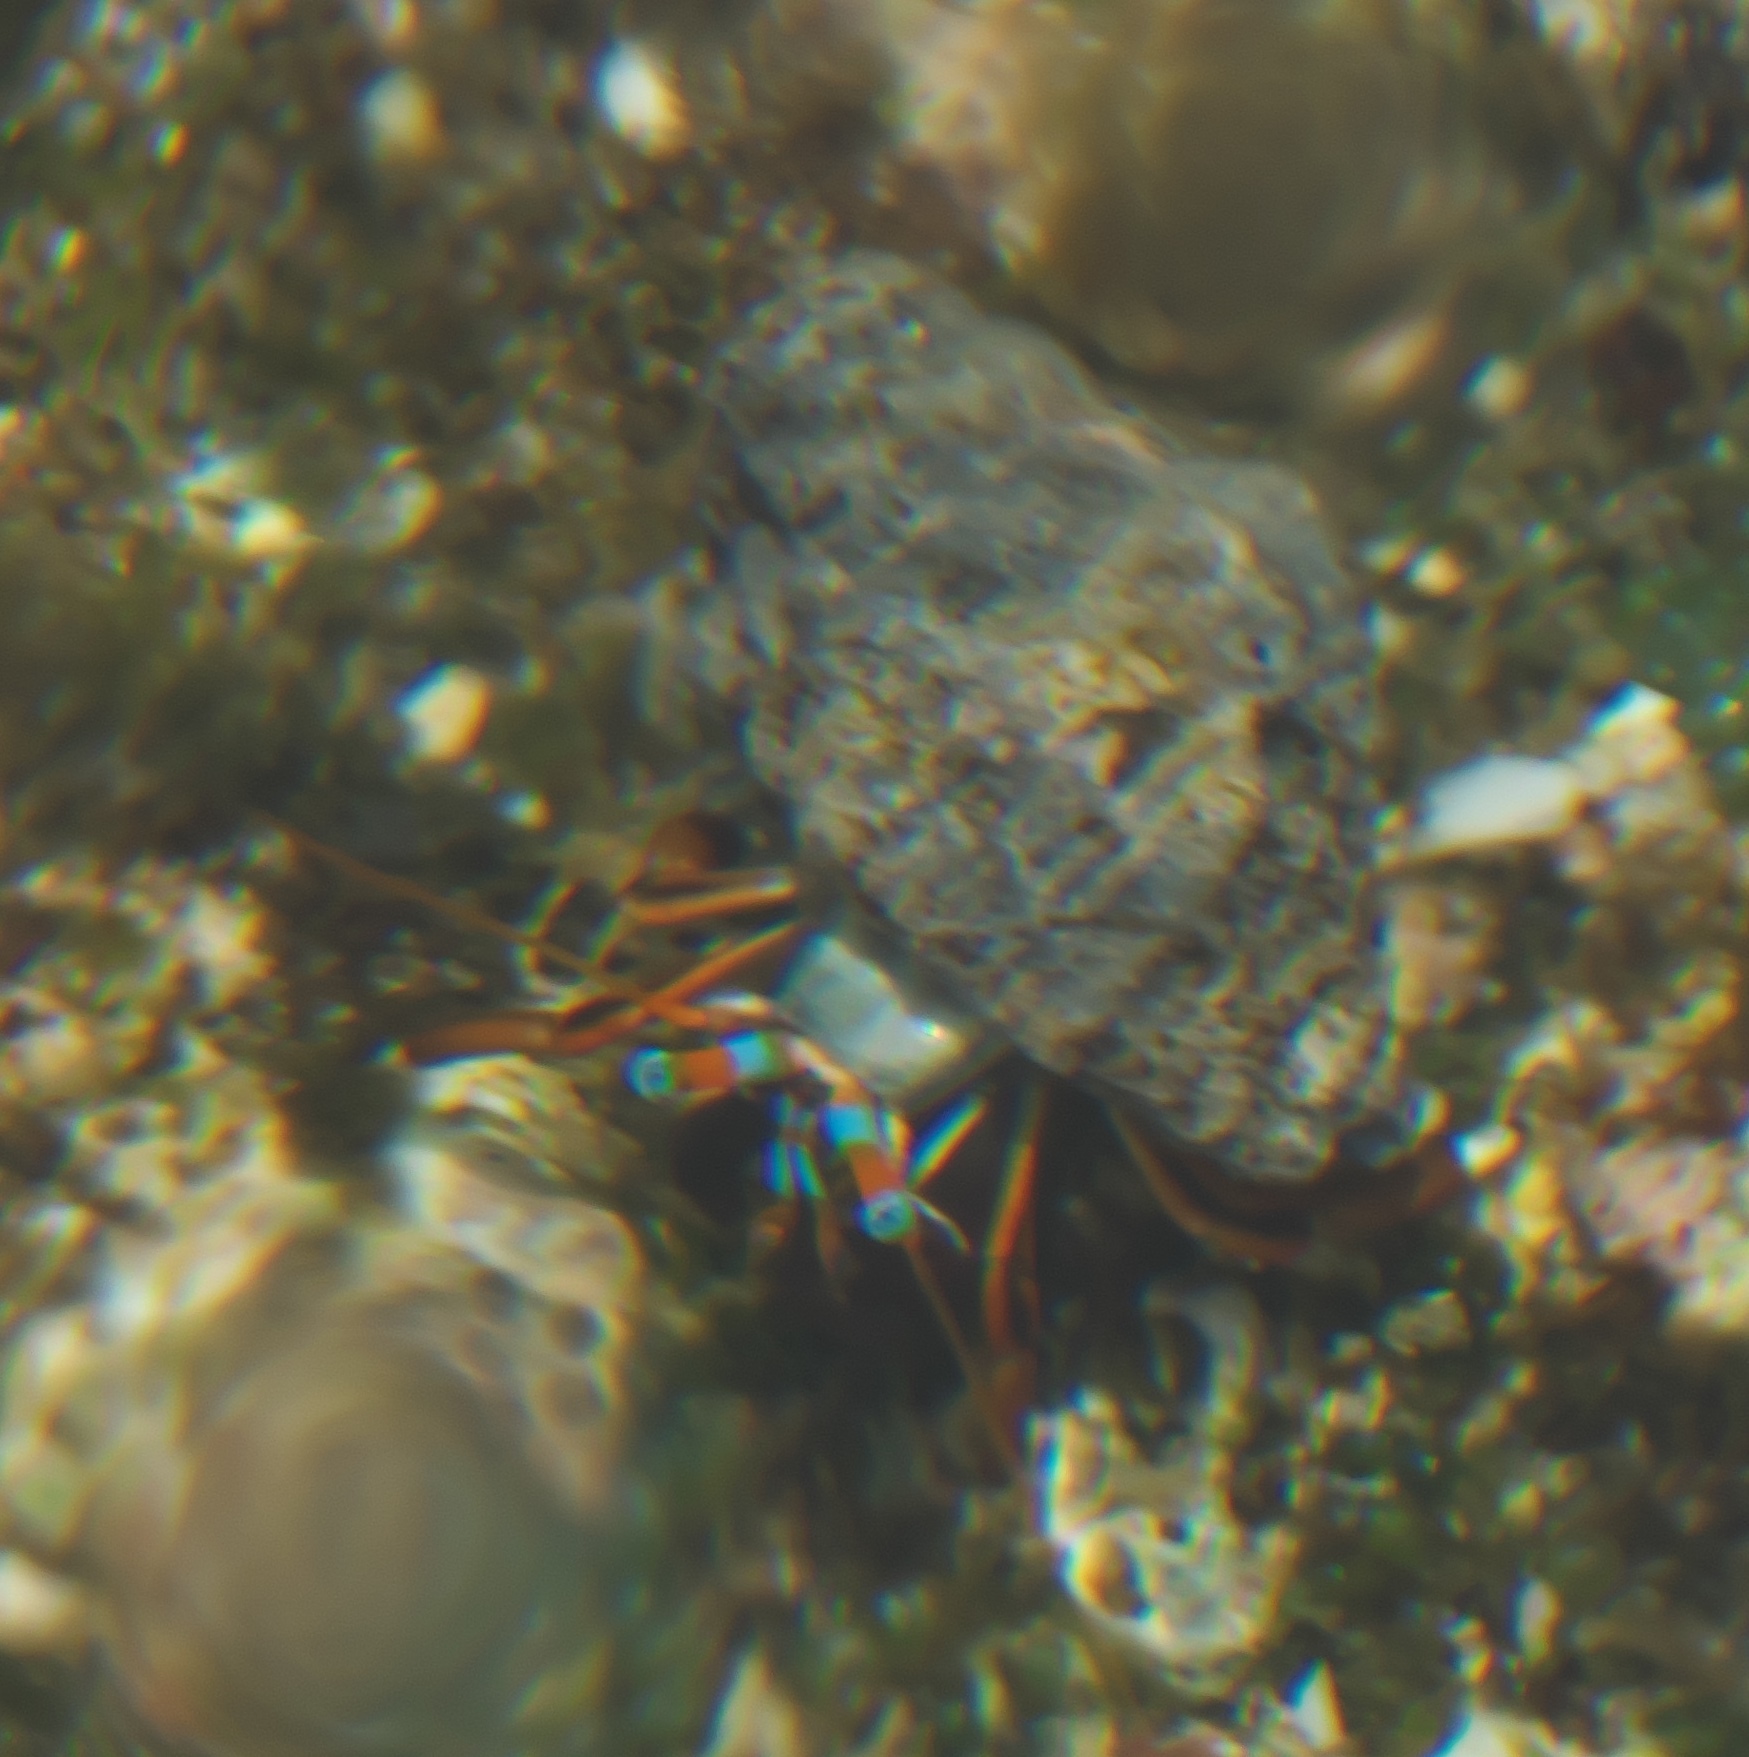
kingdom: Animalia
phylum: Arthropoda
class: Malacostraca
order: Decapoda
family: Diogenidae
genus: Calcinus
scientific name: Calcinus laevimanus
